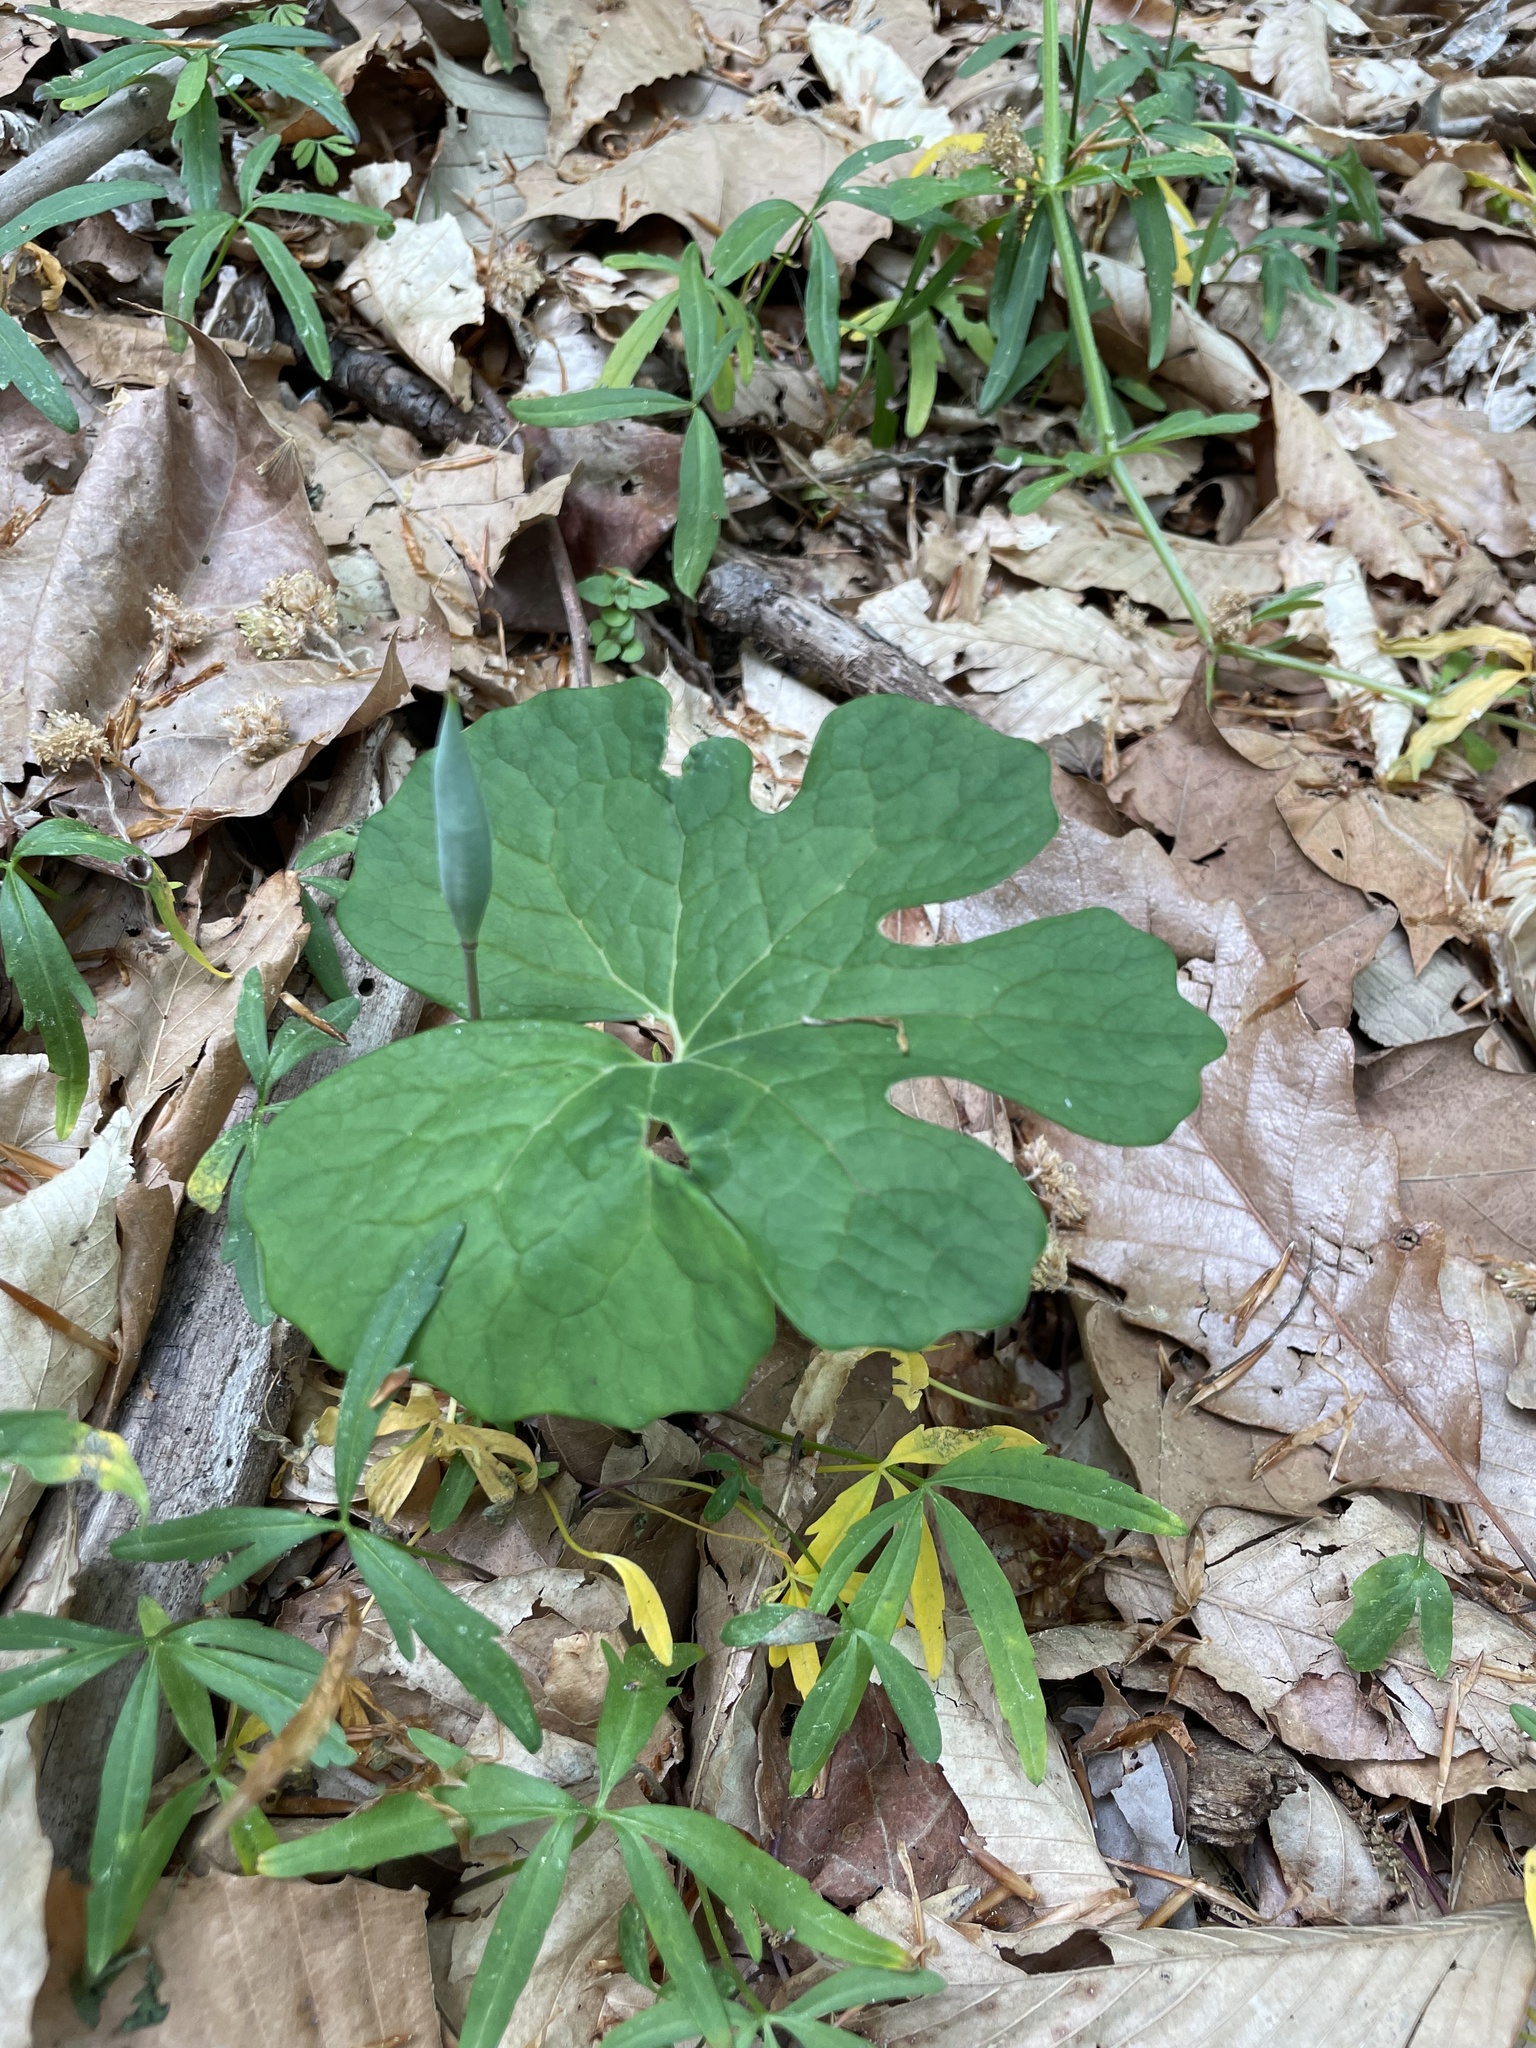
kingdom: Plantae
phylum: Tracheophyta
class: Magnoliopsida
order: Ranunculales
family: Papaveraceae
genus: Sanguinaria
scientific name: Sanguinaria canadensis
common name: Bloodroot
